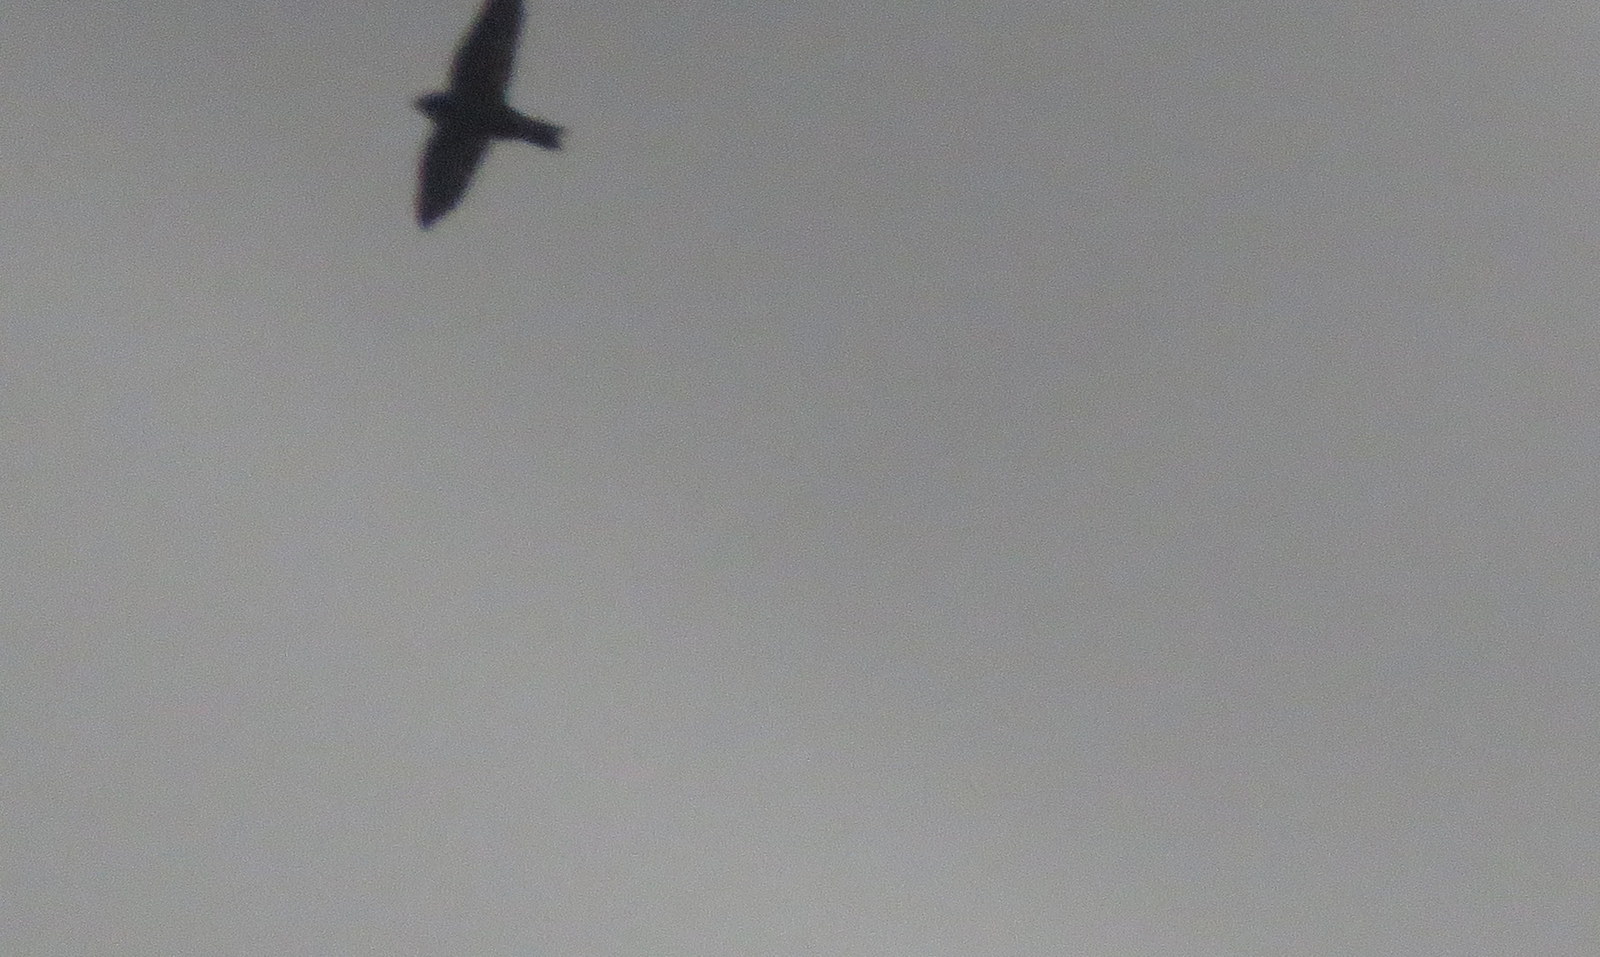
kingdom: Animalia
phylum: Chordata
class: Aves
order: Passeriformes
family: Hirundinidae
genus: Notiochelidon
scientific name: Notiochelidon cyanoleuca
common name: Blue-and-white swallow
